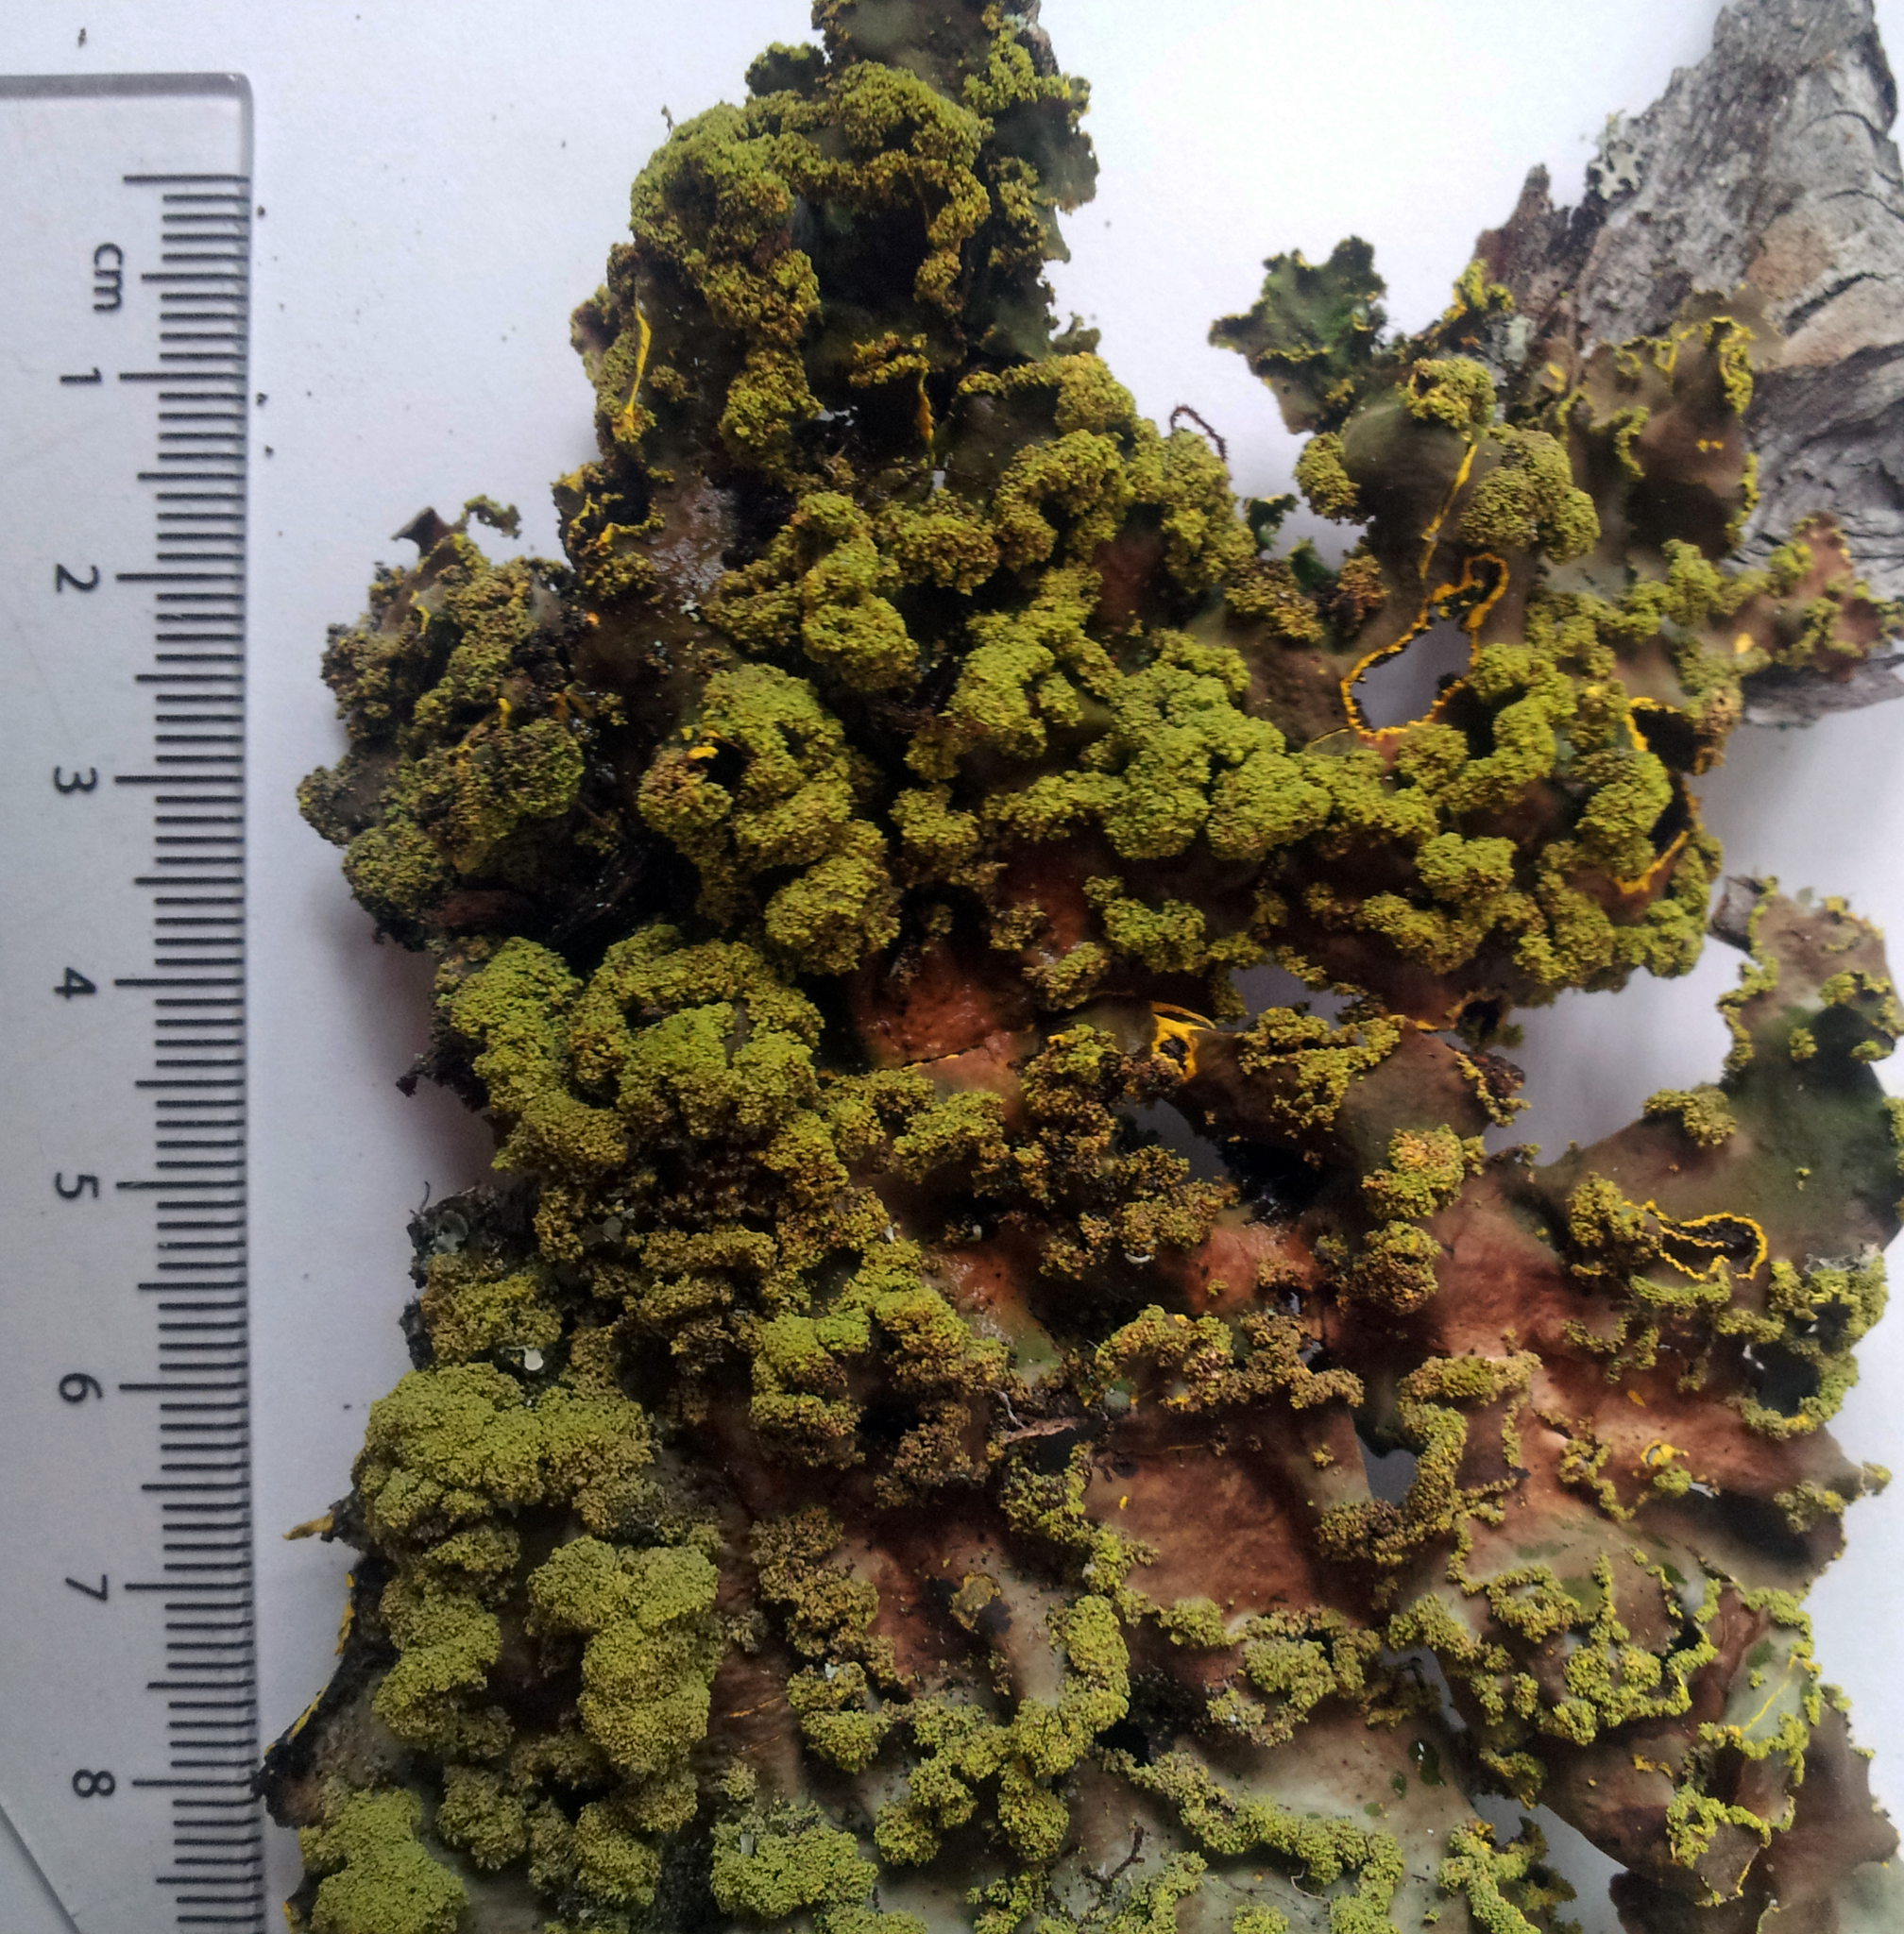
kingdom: Fungi
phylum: Ascomycota
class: Lecanoromycetes
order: Peltigerales
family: Lobariaceae
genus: Crocodia
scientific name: Crocodia poculifera
